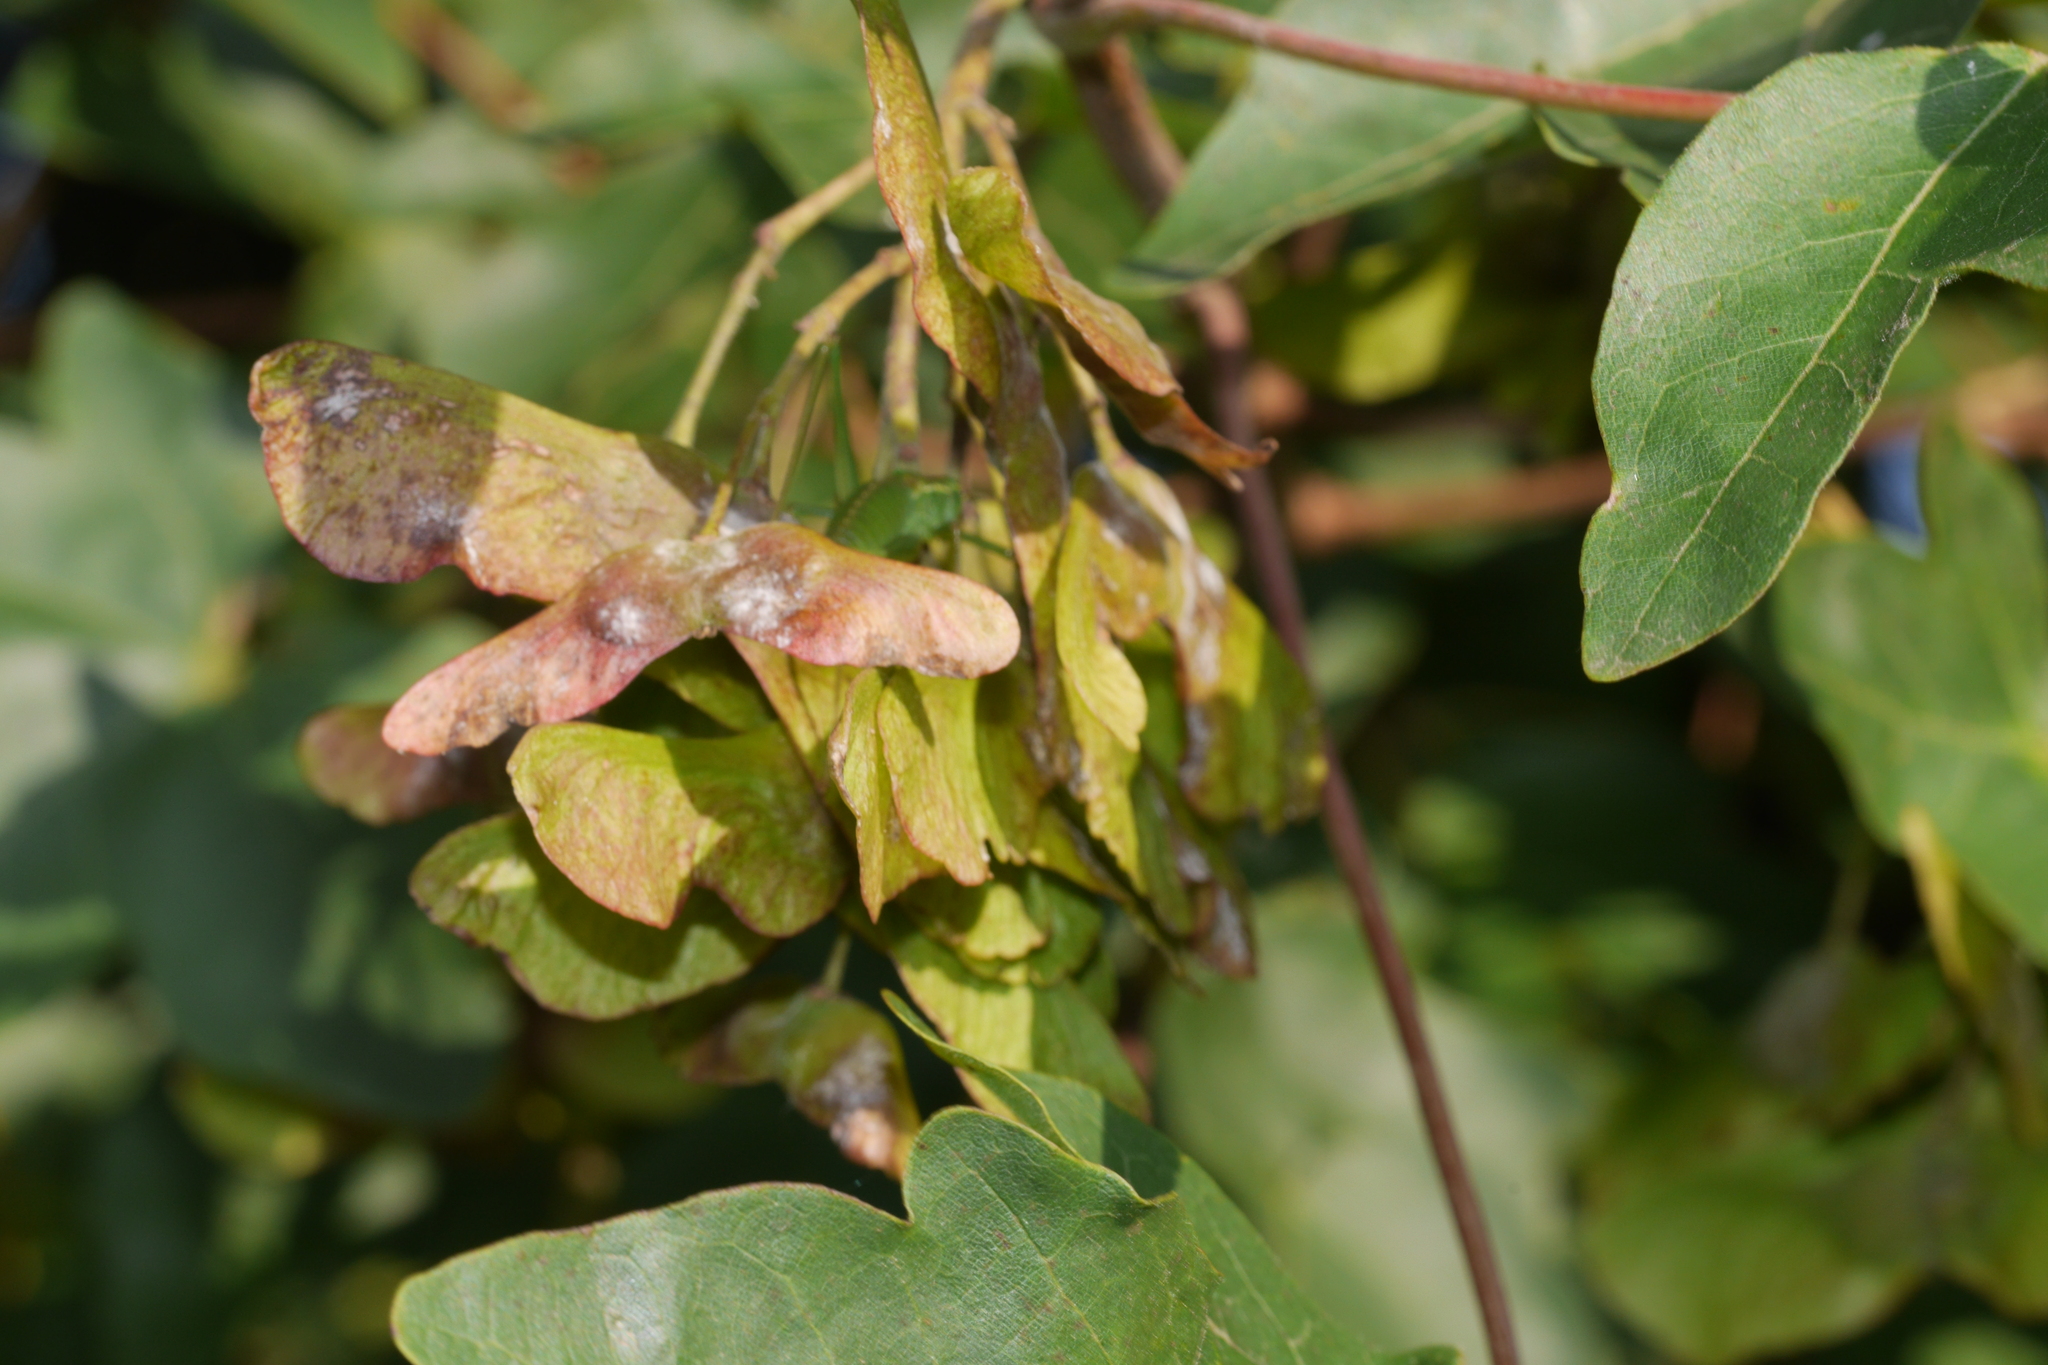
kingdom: Plantae
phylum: Tracheophyta
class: Magnoliopsida
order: Sapindales
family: Sapindaceae
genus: Acer
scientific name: Acer campestre
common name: Field maple
